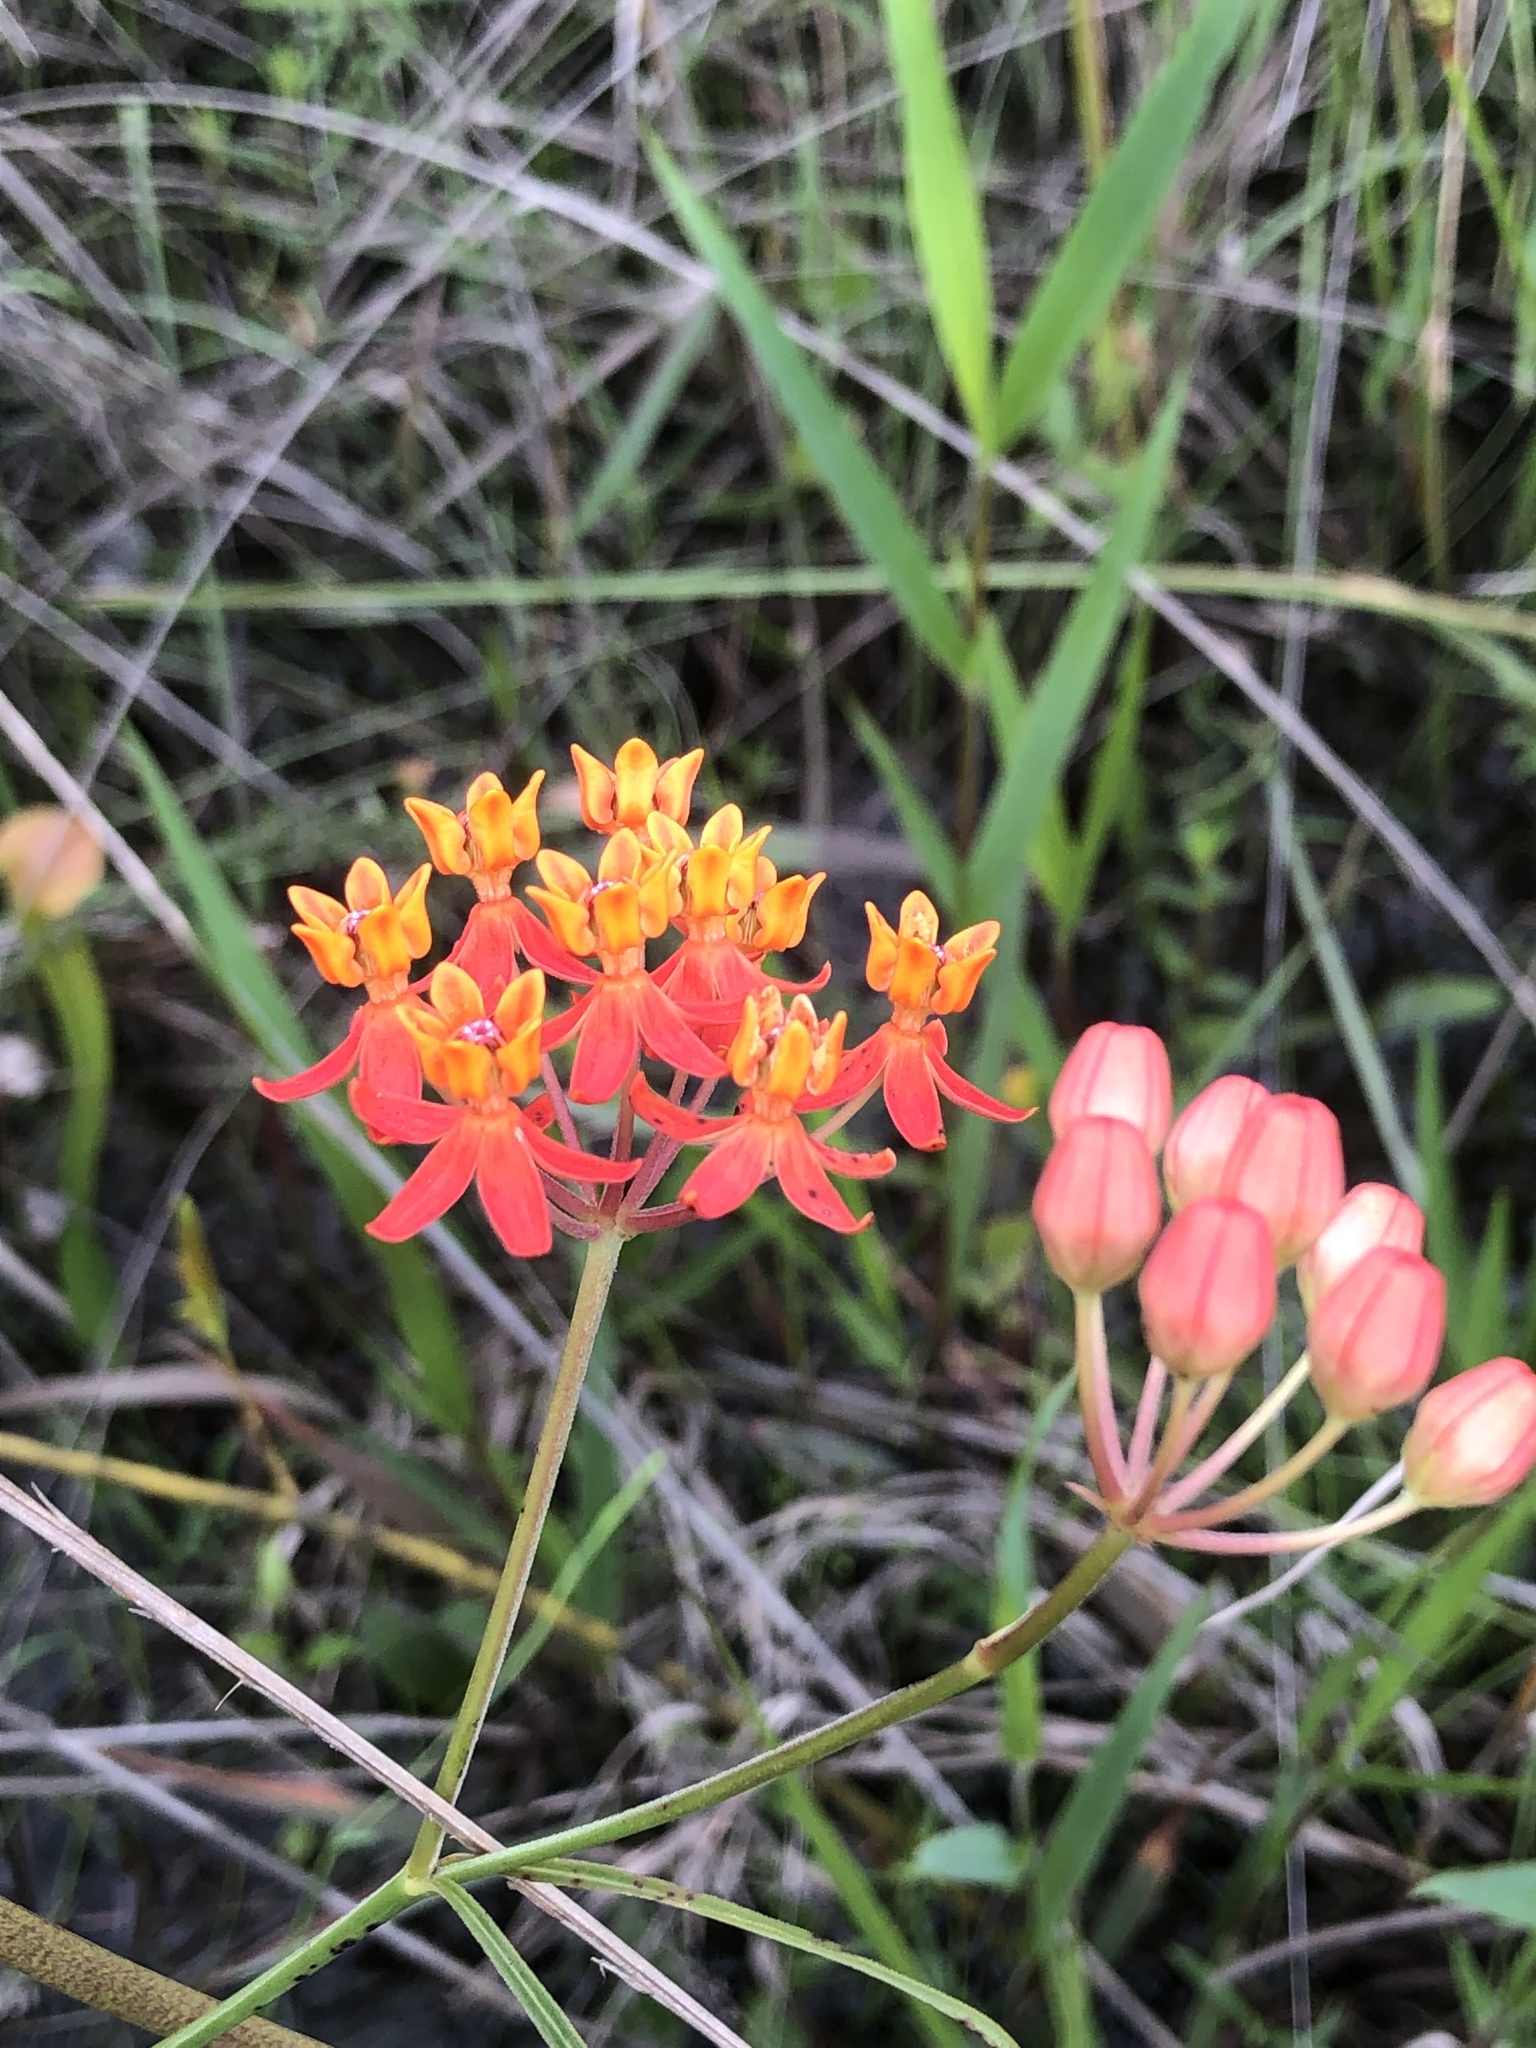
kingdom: Plantae
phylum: Tracheophyta
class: Magnoliopsida
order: Gentianales
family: Apocynaceae
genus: Asclepias
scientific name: Asclepias lanceolata
